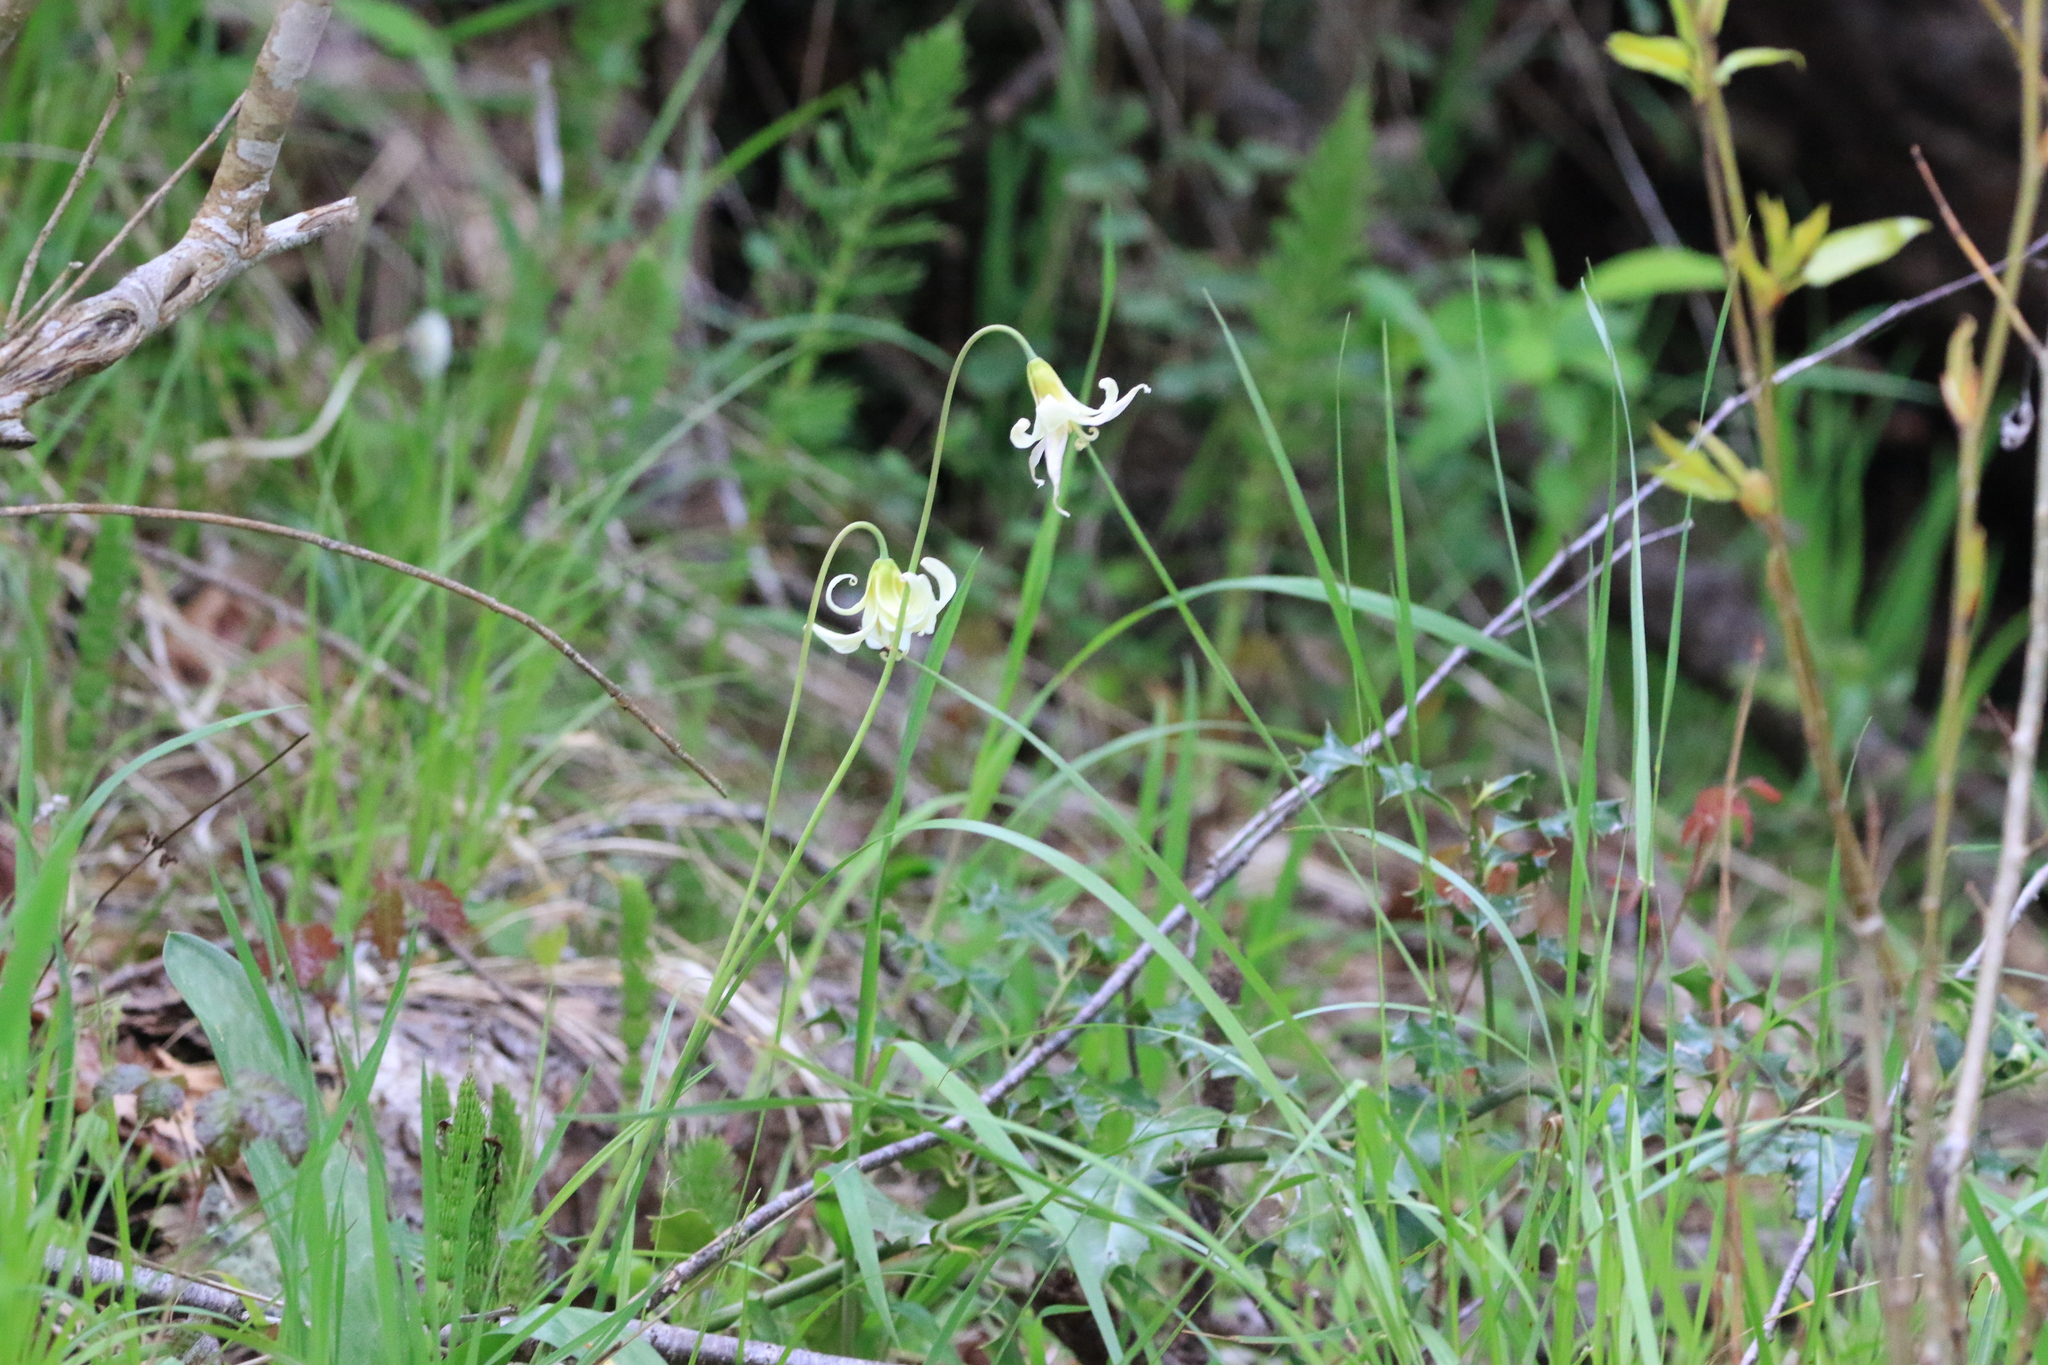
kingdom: Plantae
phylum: Tracheophyta
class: Liliopsida
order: Liliales
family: Liliaceae
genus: Erythronium
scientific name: Erythronium oregonum
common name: Giant adder's-tongue
